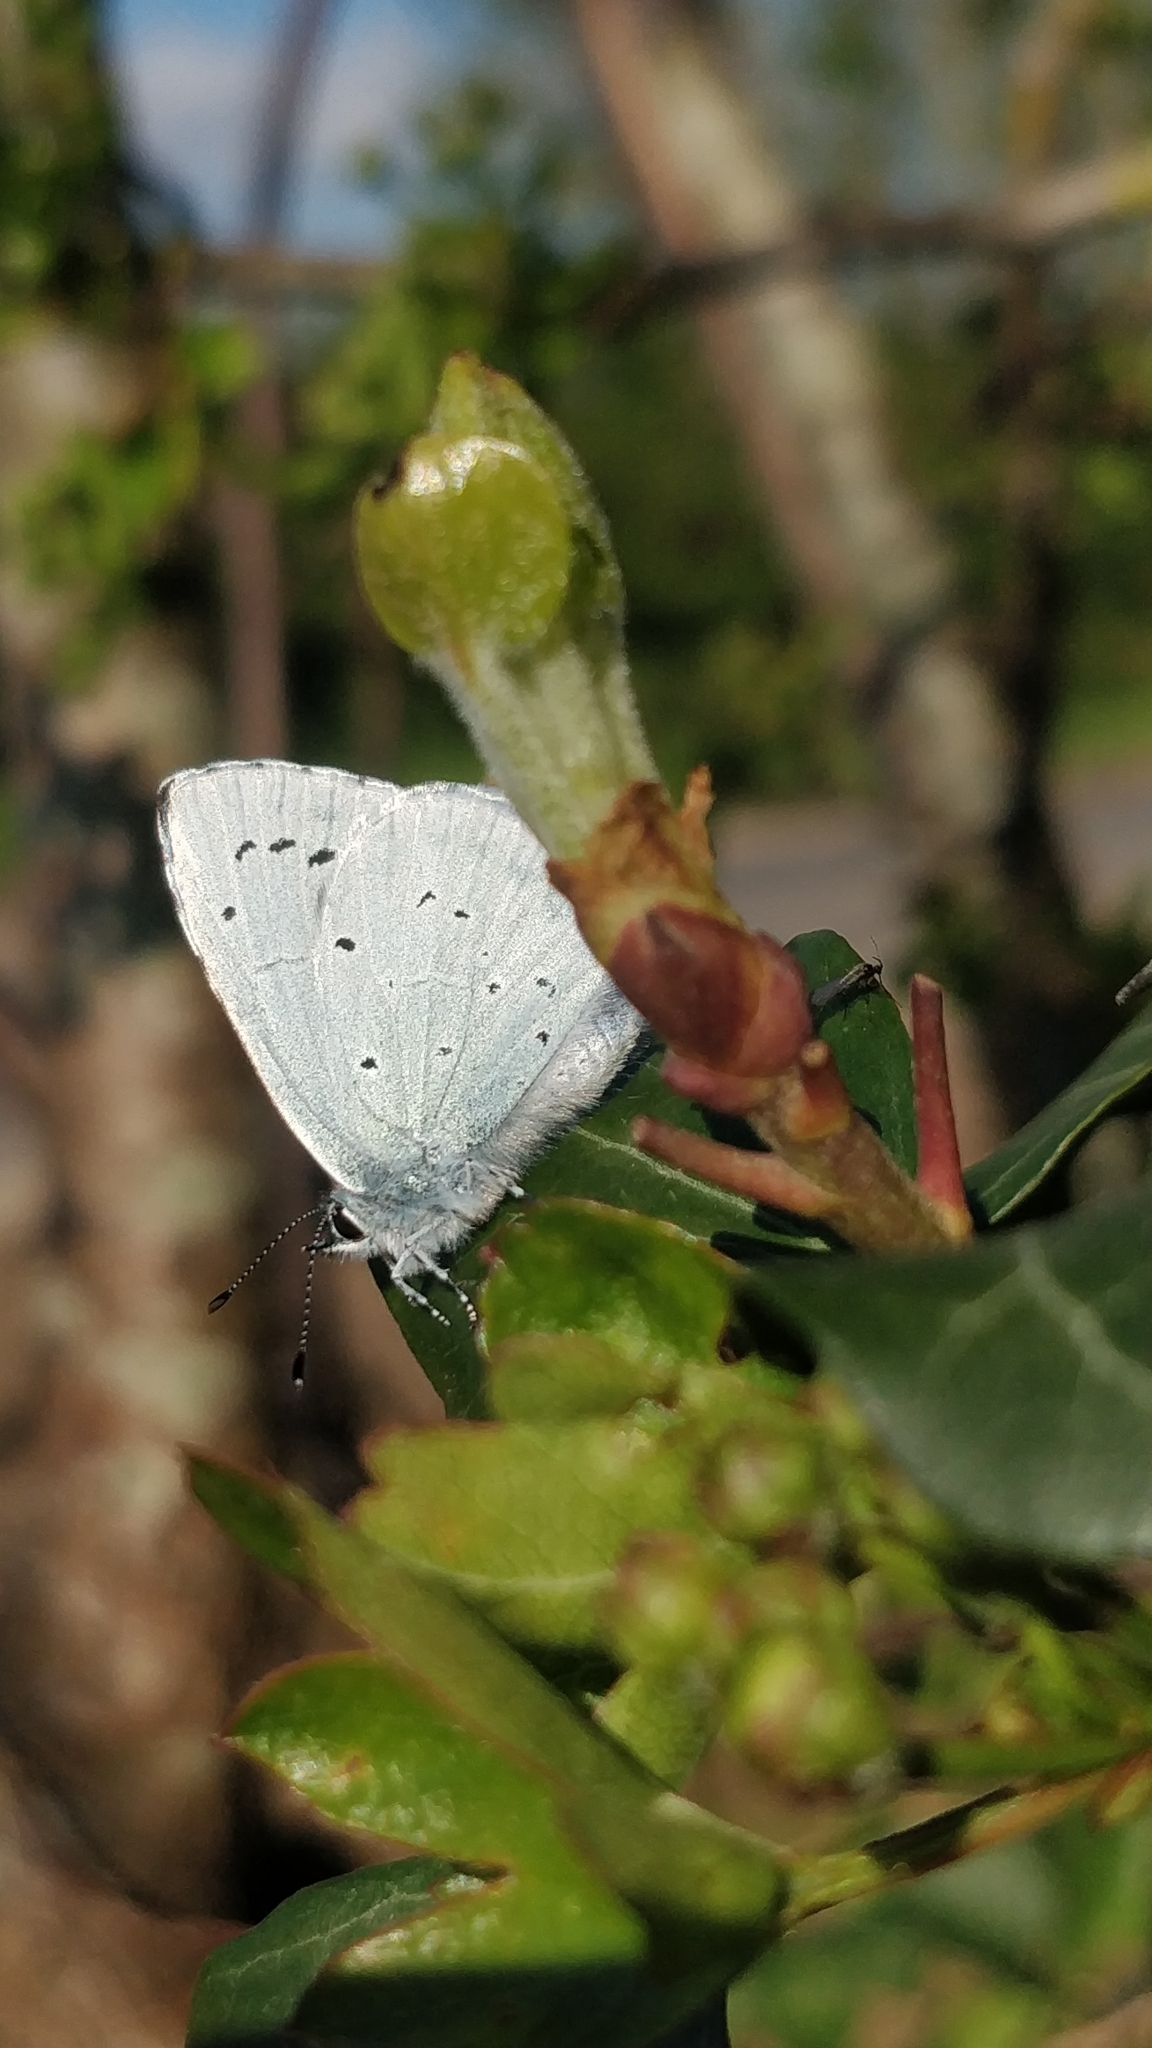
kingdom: Animalia
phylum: Arthropoda
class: Insecta
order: Lepidoptera
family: Lycaenidae
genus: Celastrina
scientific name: Celastrina argiolus
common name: Holly blue
